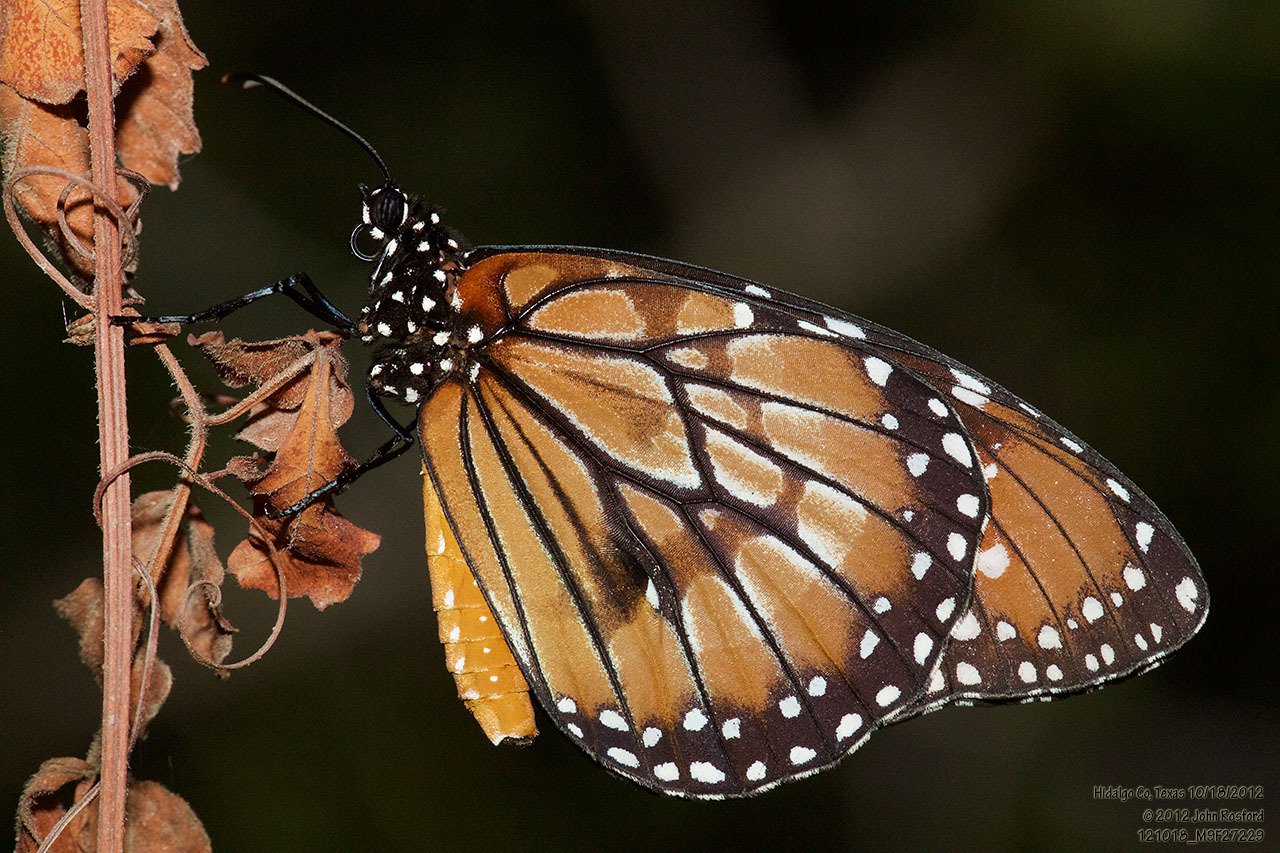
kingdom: Animalia
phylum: Arthropoda
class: Insecta
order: Lepidoptera
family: Nymphalidae
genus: Danaus
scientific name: Danaus eresimus
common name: Soldier
